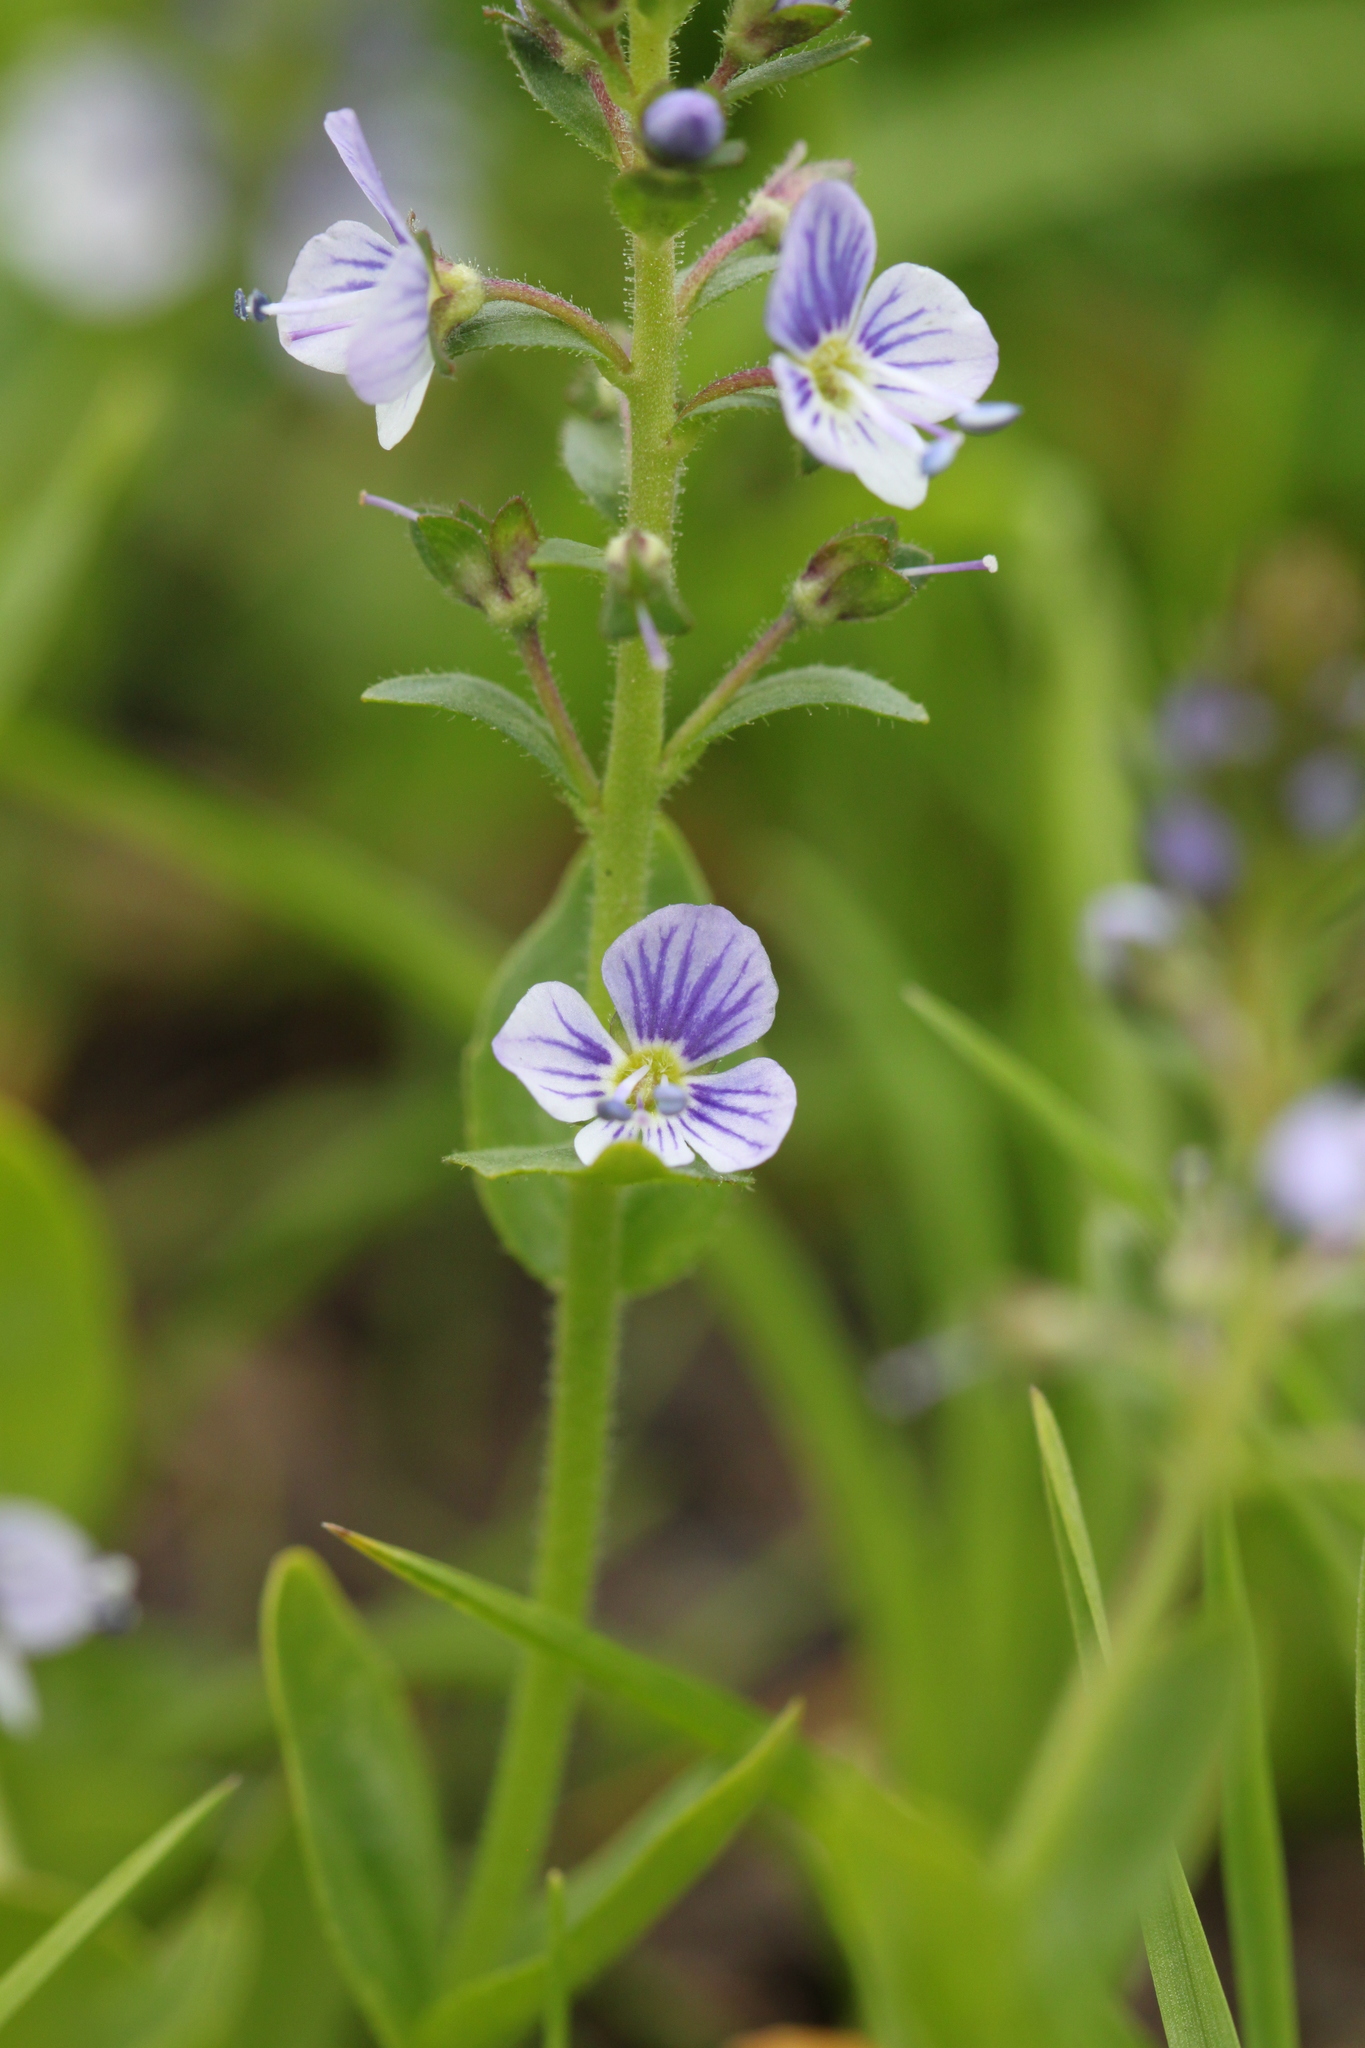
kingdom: Plantae
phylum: Tracheophyta
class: Magnoliopsida
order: Lamiales
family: Plantaginaceae
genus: Veronica
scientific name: Veronica serpyllifolia
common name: Thyme-leaved speedwell
